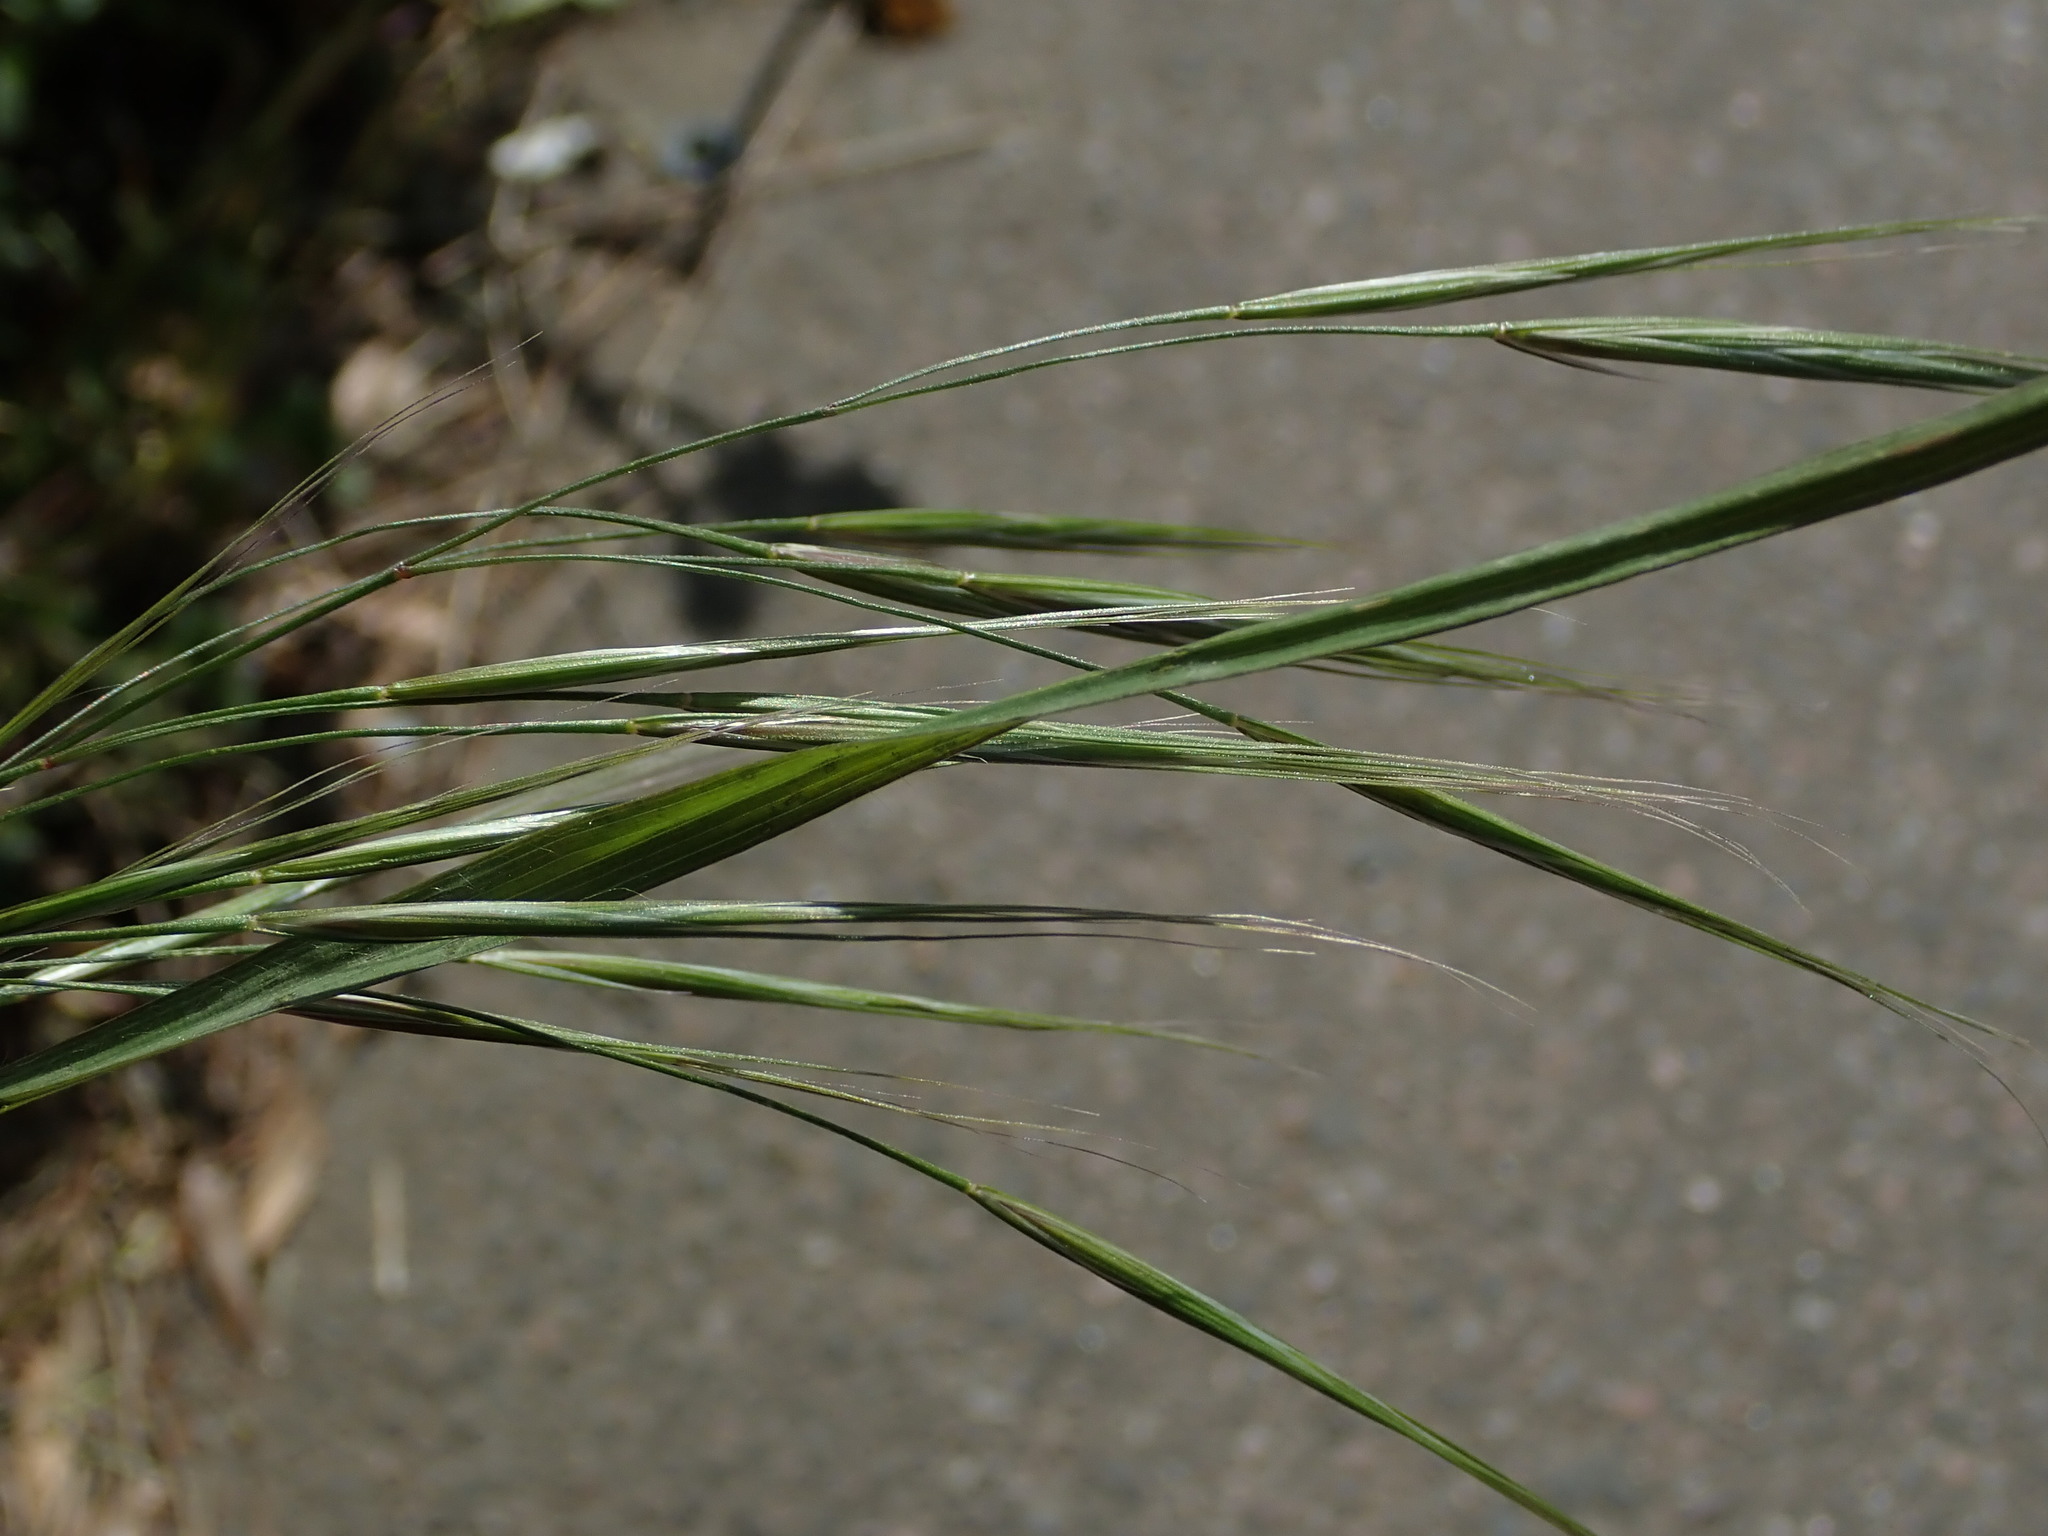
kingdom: Plantae
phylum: Tracheophyta
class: Liliopsida
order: Poales
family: Poaceae
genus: Bromus
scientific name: Bromus sterilis
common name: Poverty brome
